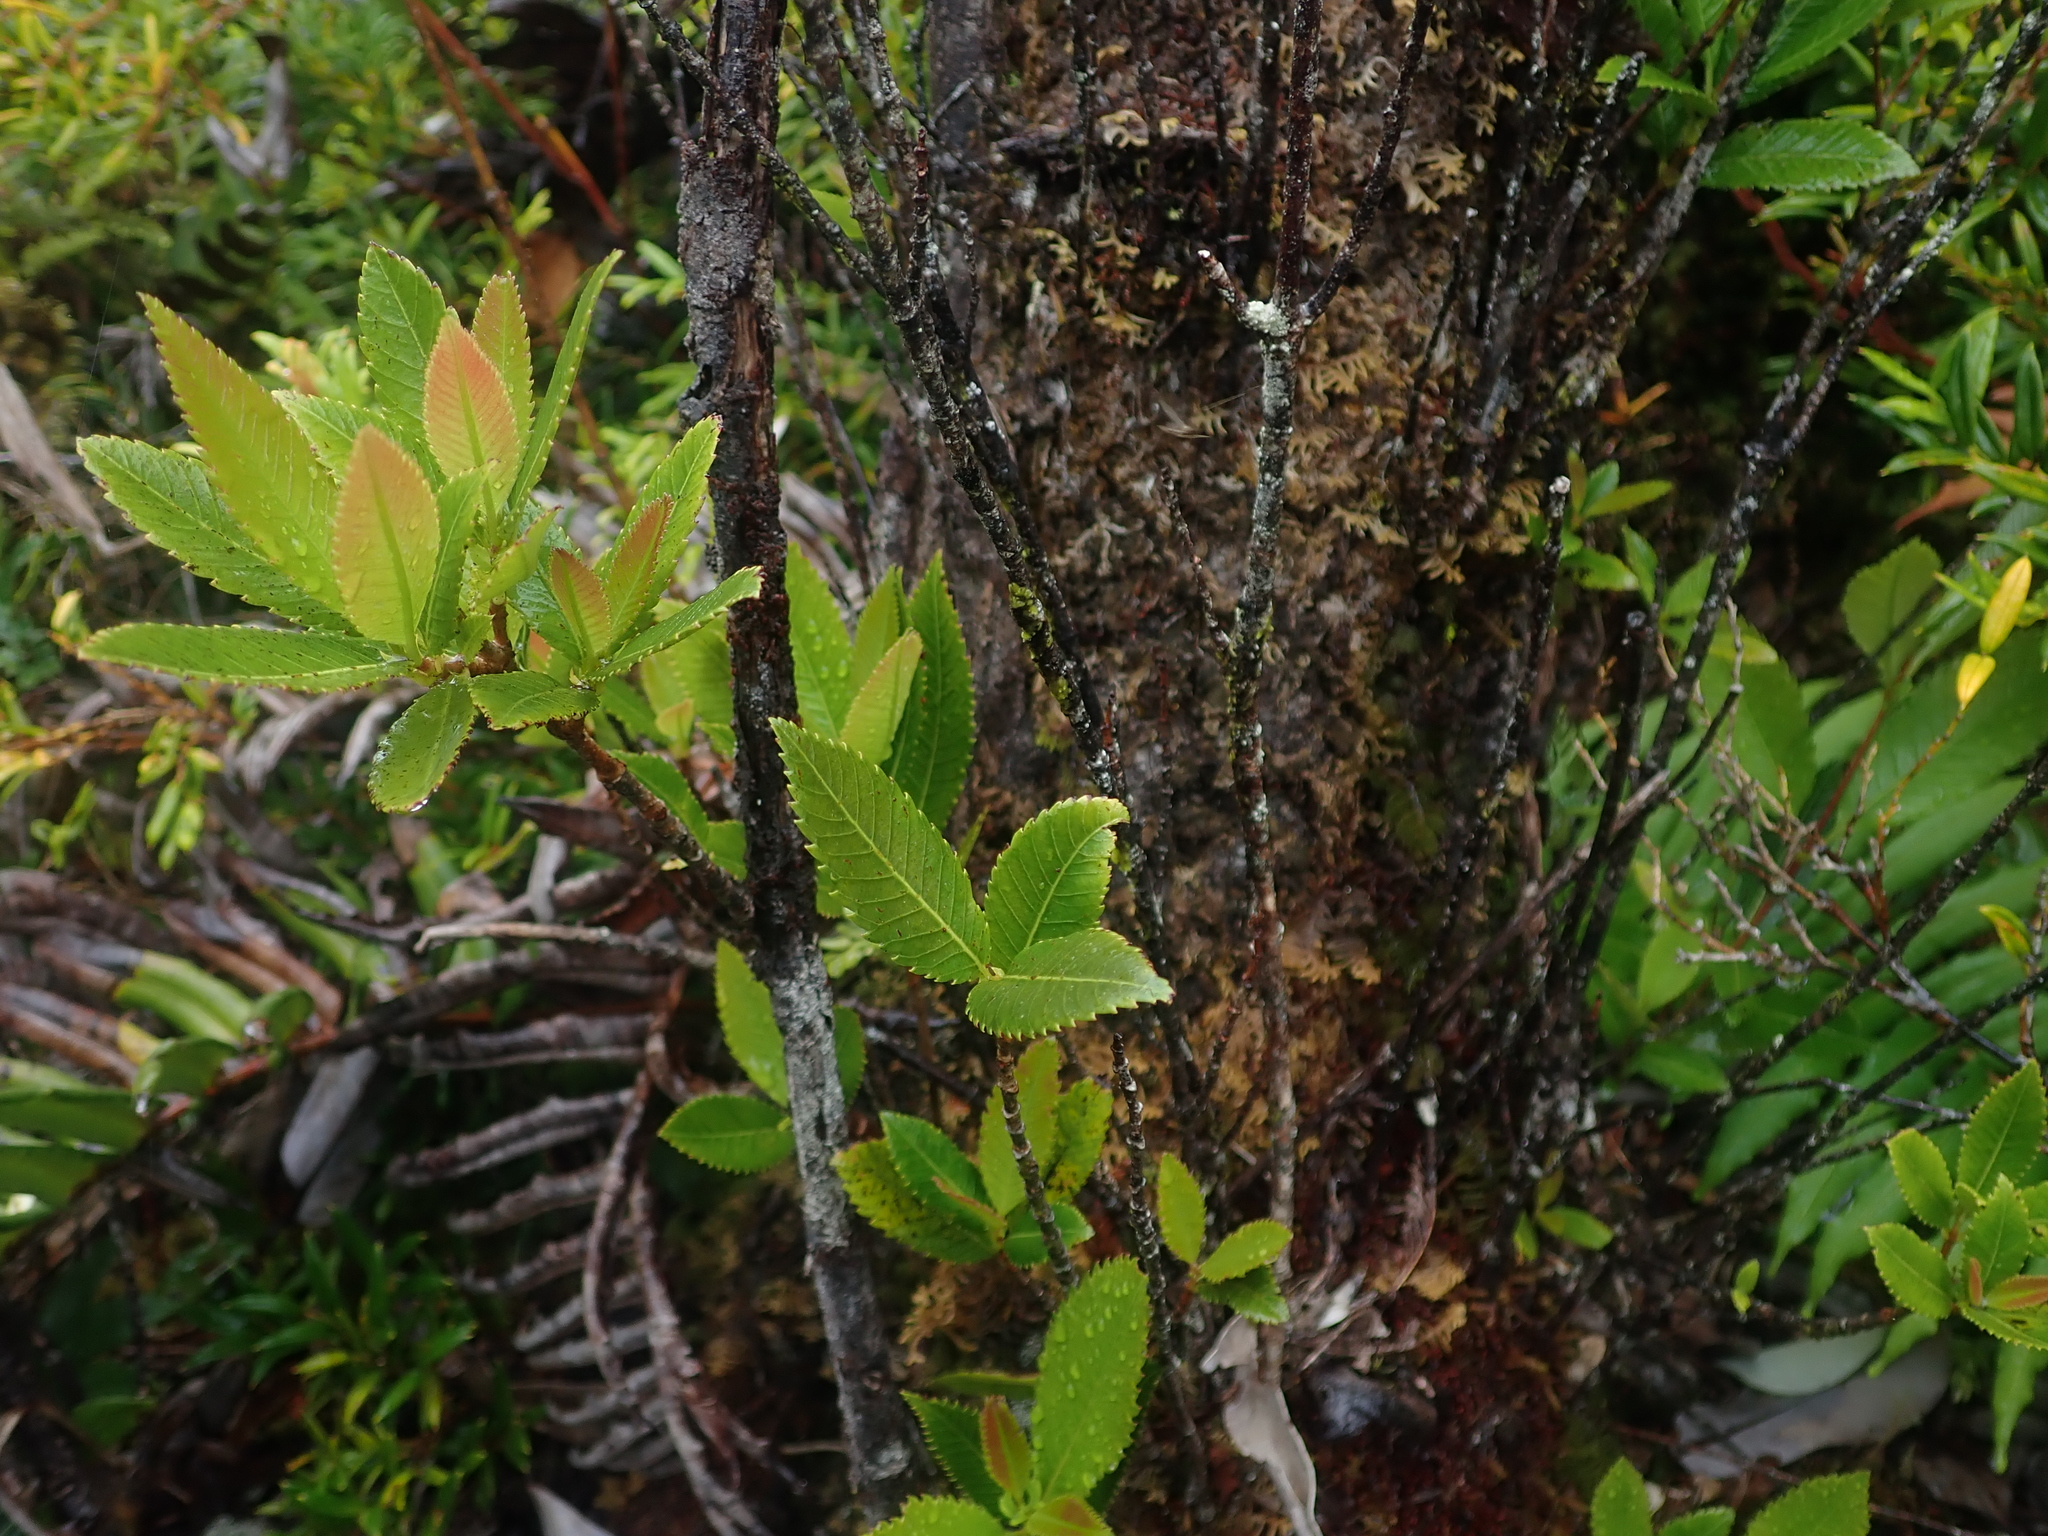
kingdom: Plantae
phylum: Tracheophyta
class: Magnoliopsida
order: Oxalidales
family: Cunoniaceae
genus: Caldcluvia
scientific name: Caldcluvia paniculata
